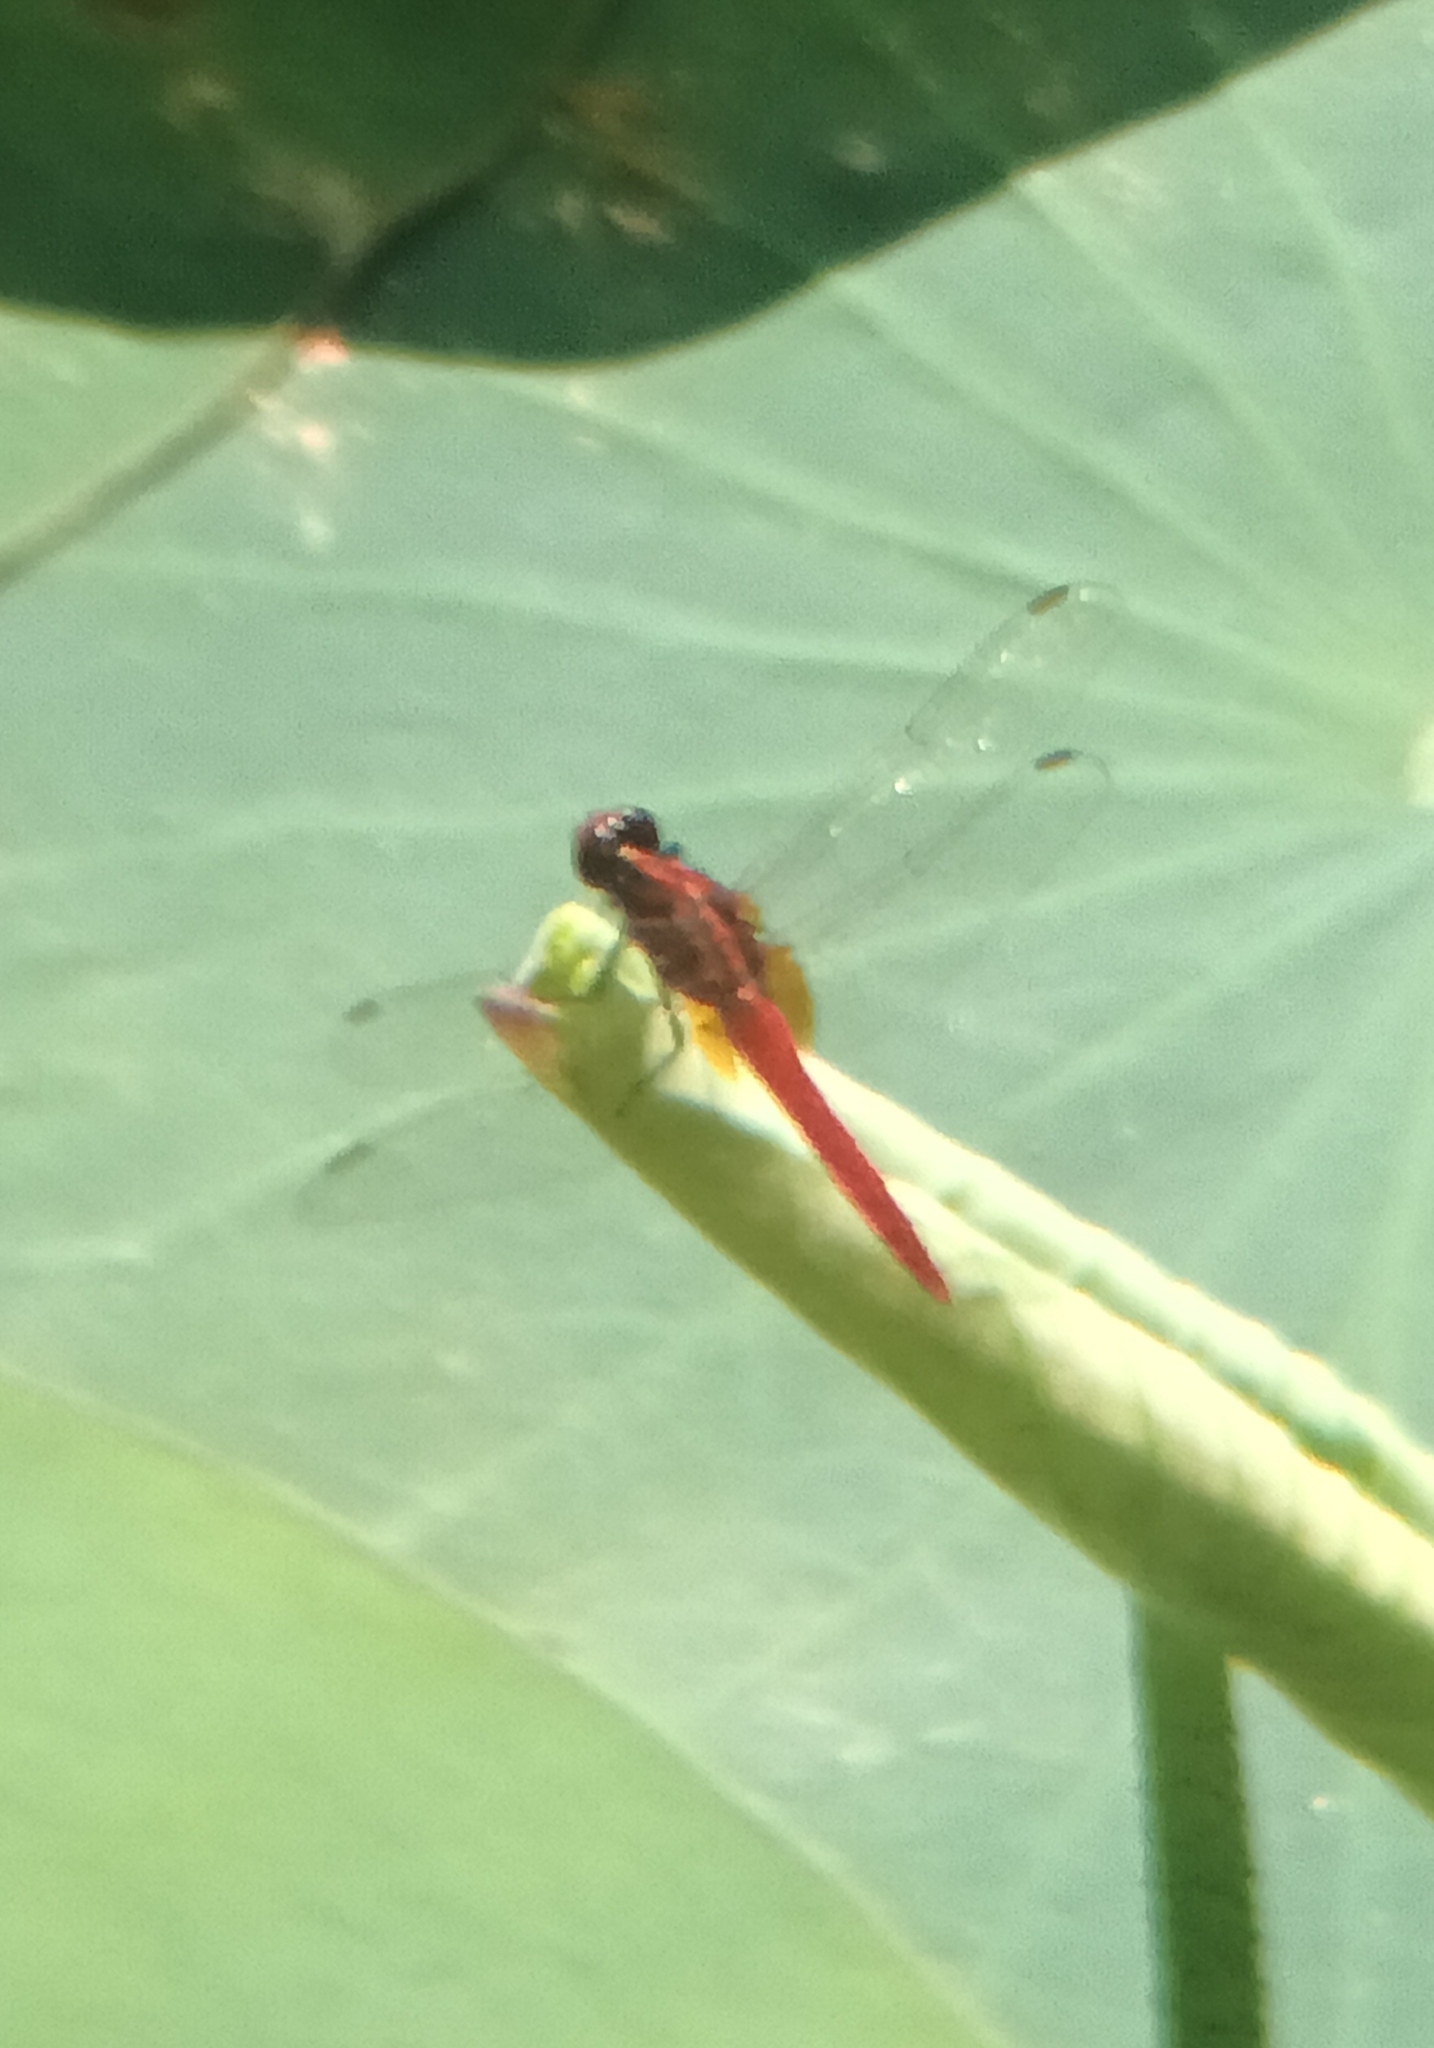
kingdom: Animalia
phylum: Arthropoda
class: Insecta
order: Odonata
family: Libellulidae
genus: Rhodothemis
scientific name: Rhodothemis rufa
